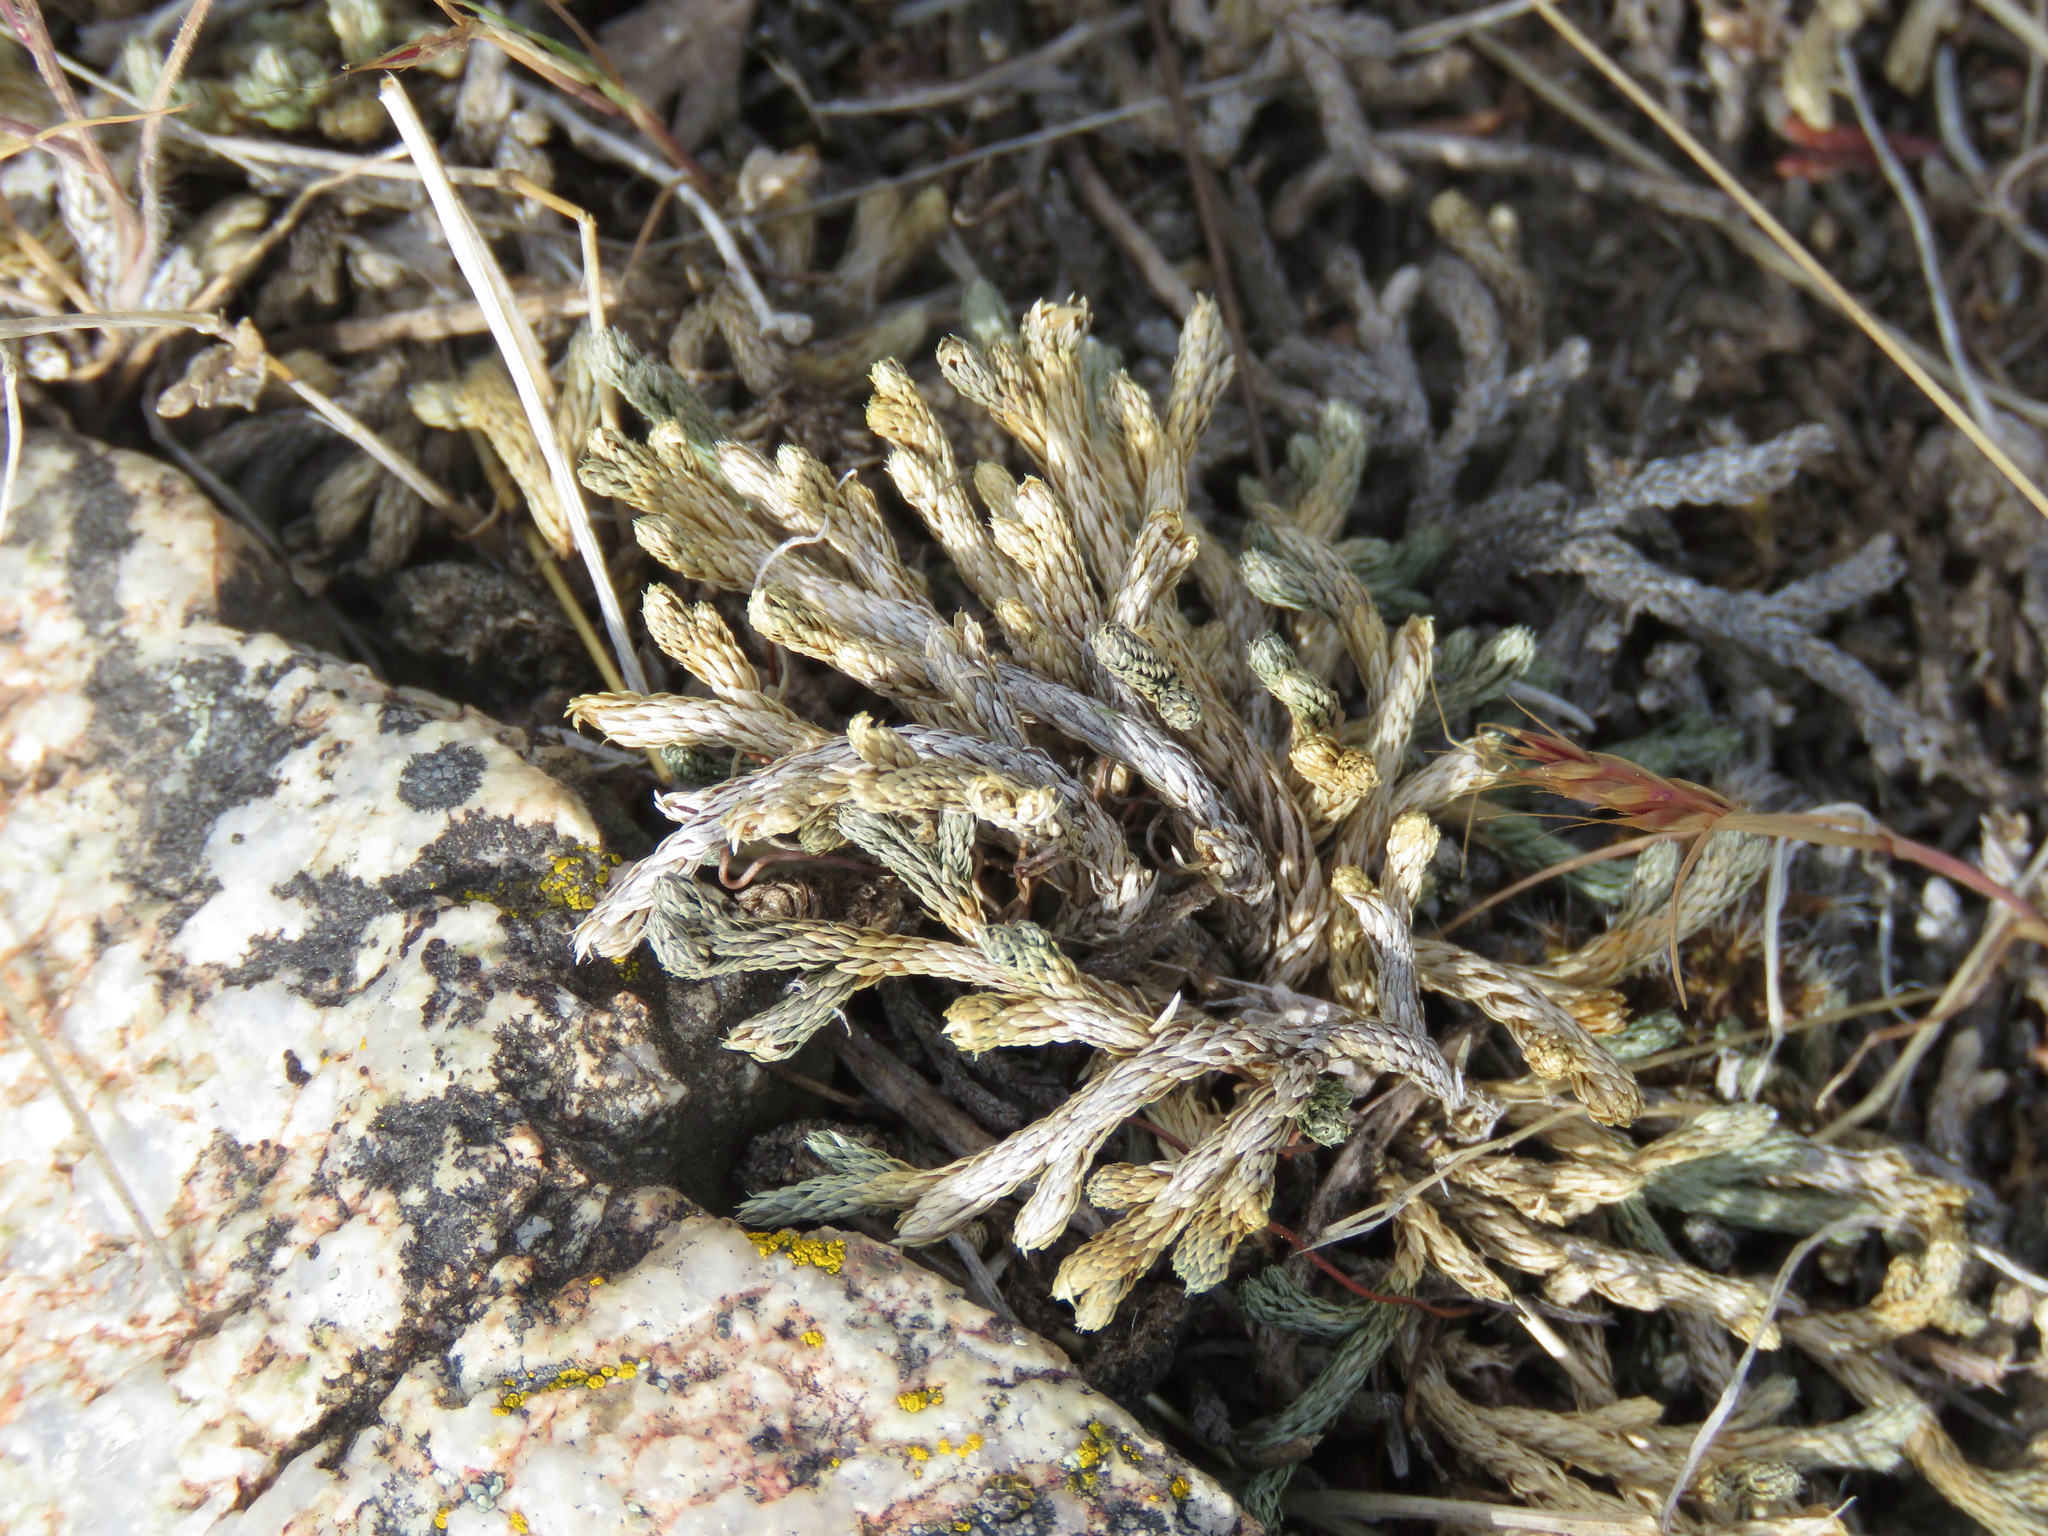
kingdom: Plantae
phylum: Tracheophyta
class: Lycopodiopsida
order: Selaginellales
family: Selaginellaceae
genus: Selaginella
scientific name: Selaginella wallacei
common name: Wallace's selaginella
